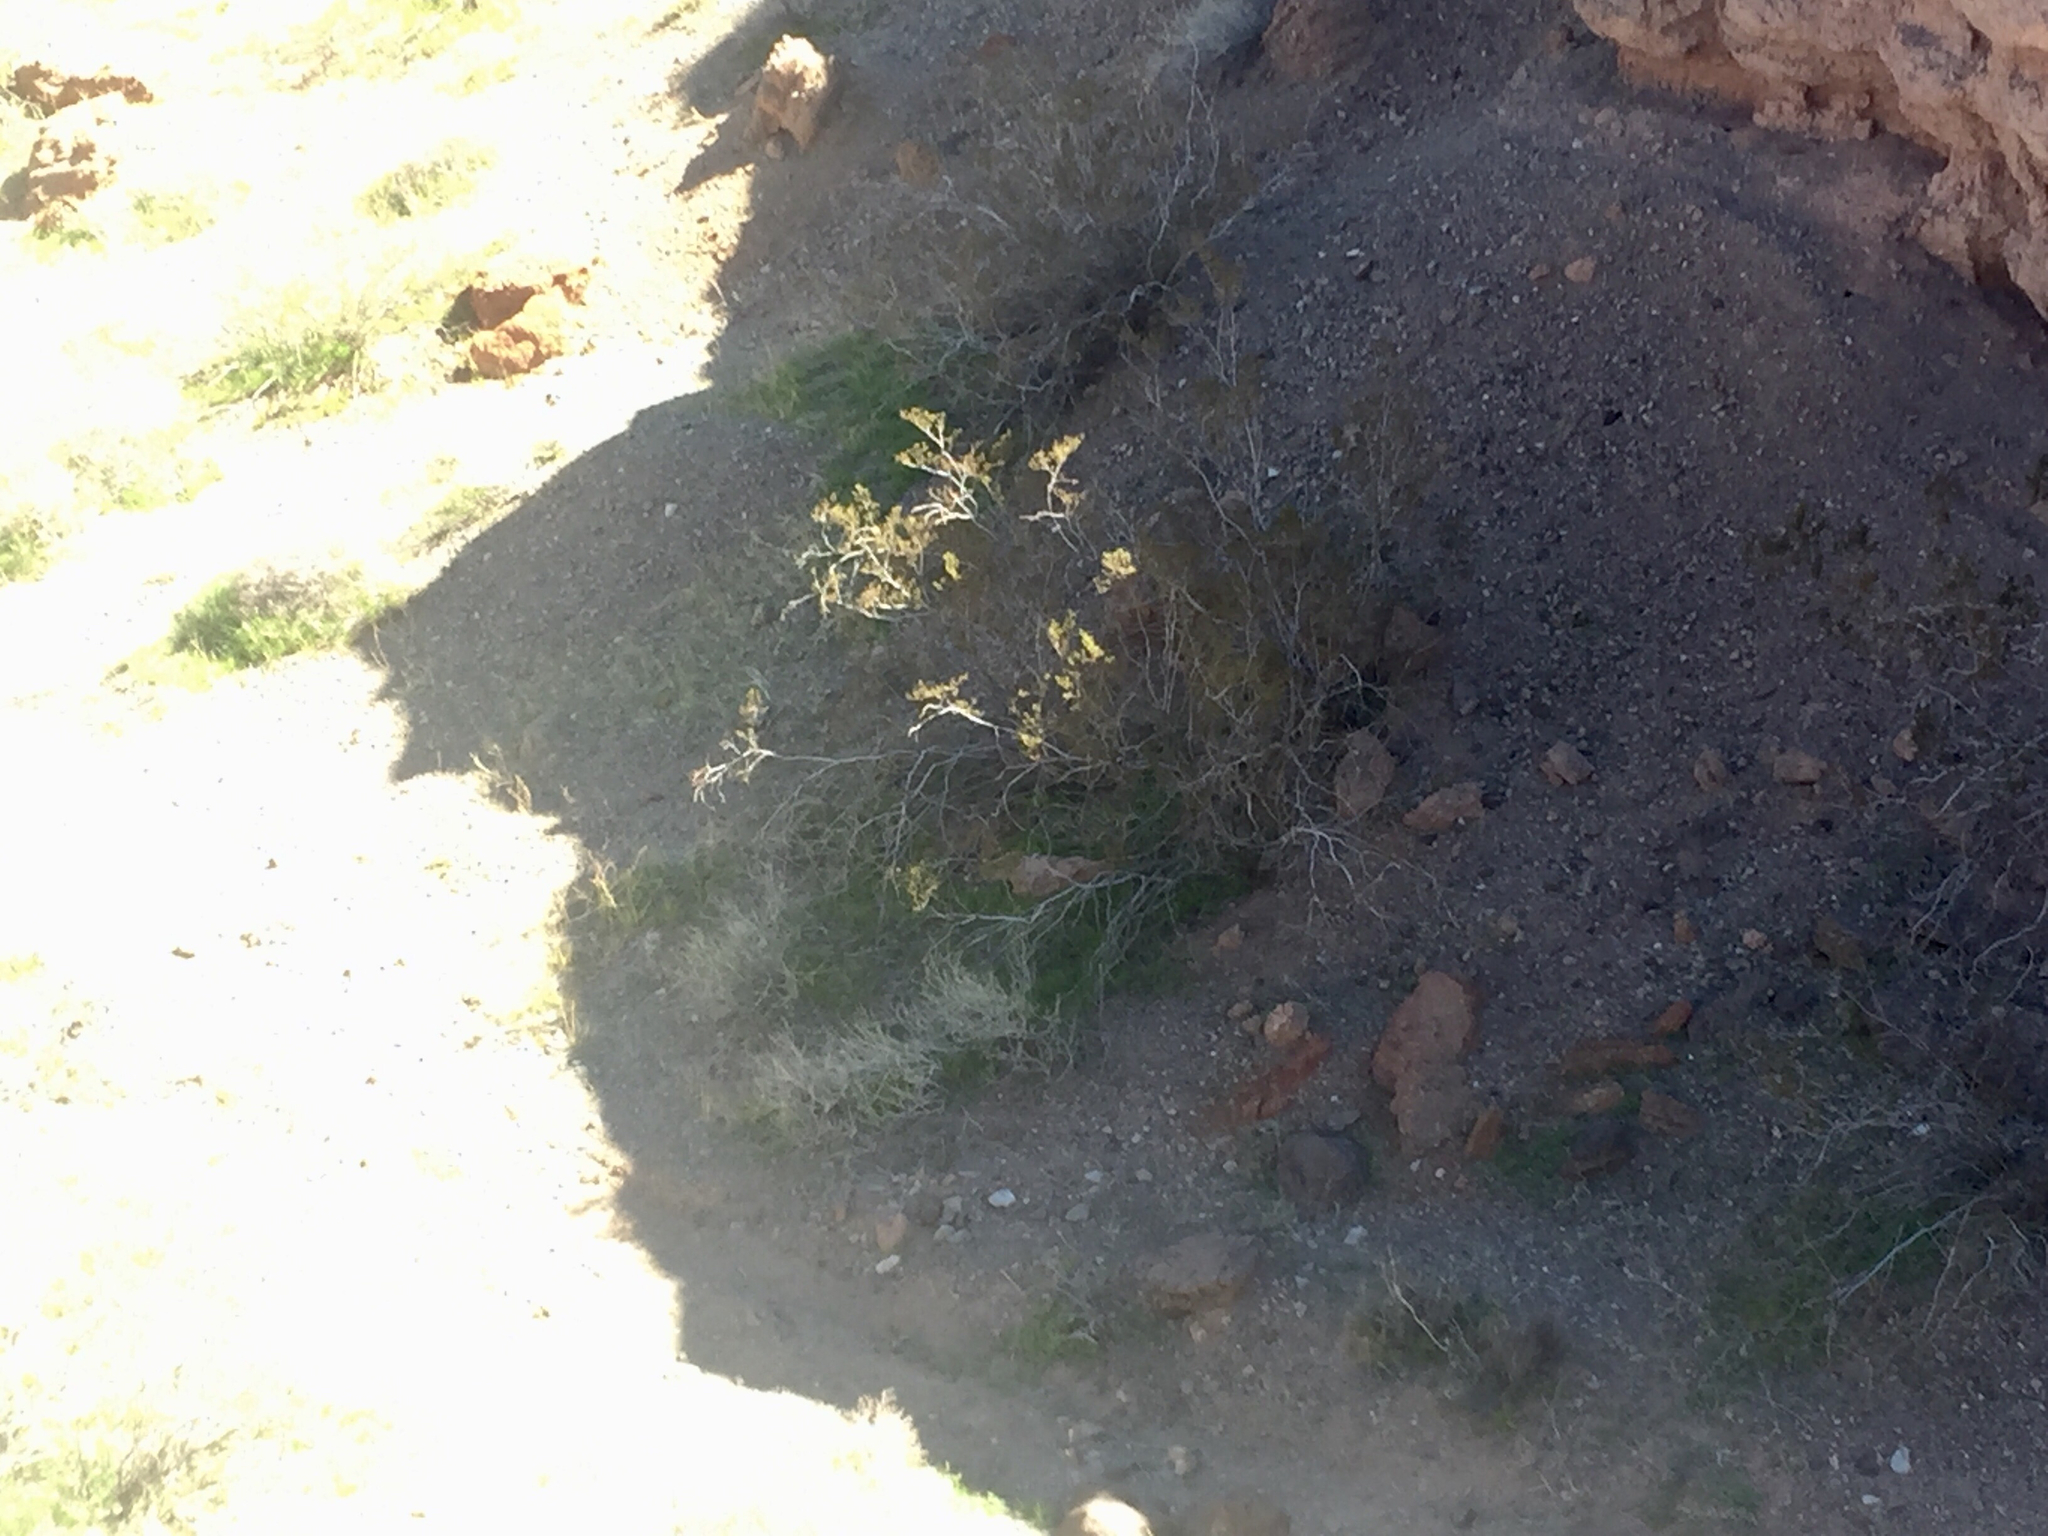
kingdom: Plantae
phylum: Tracheophyta
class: Magnoliopsida
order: Zygophyllales
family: Zygophyllaceae
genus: Larrea
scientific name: Larrea tridentata
